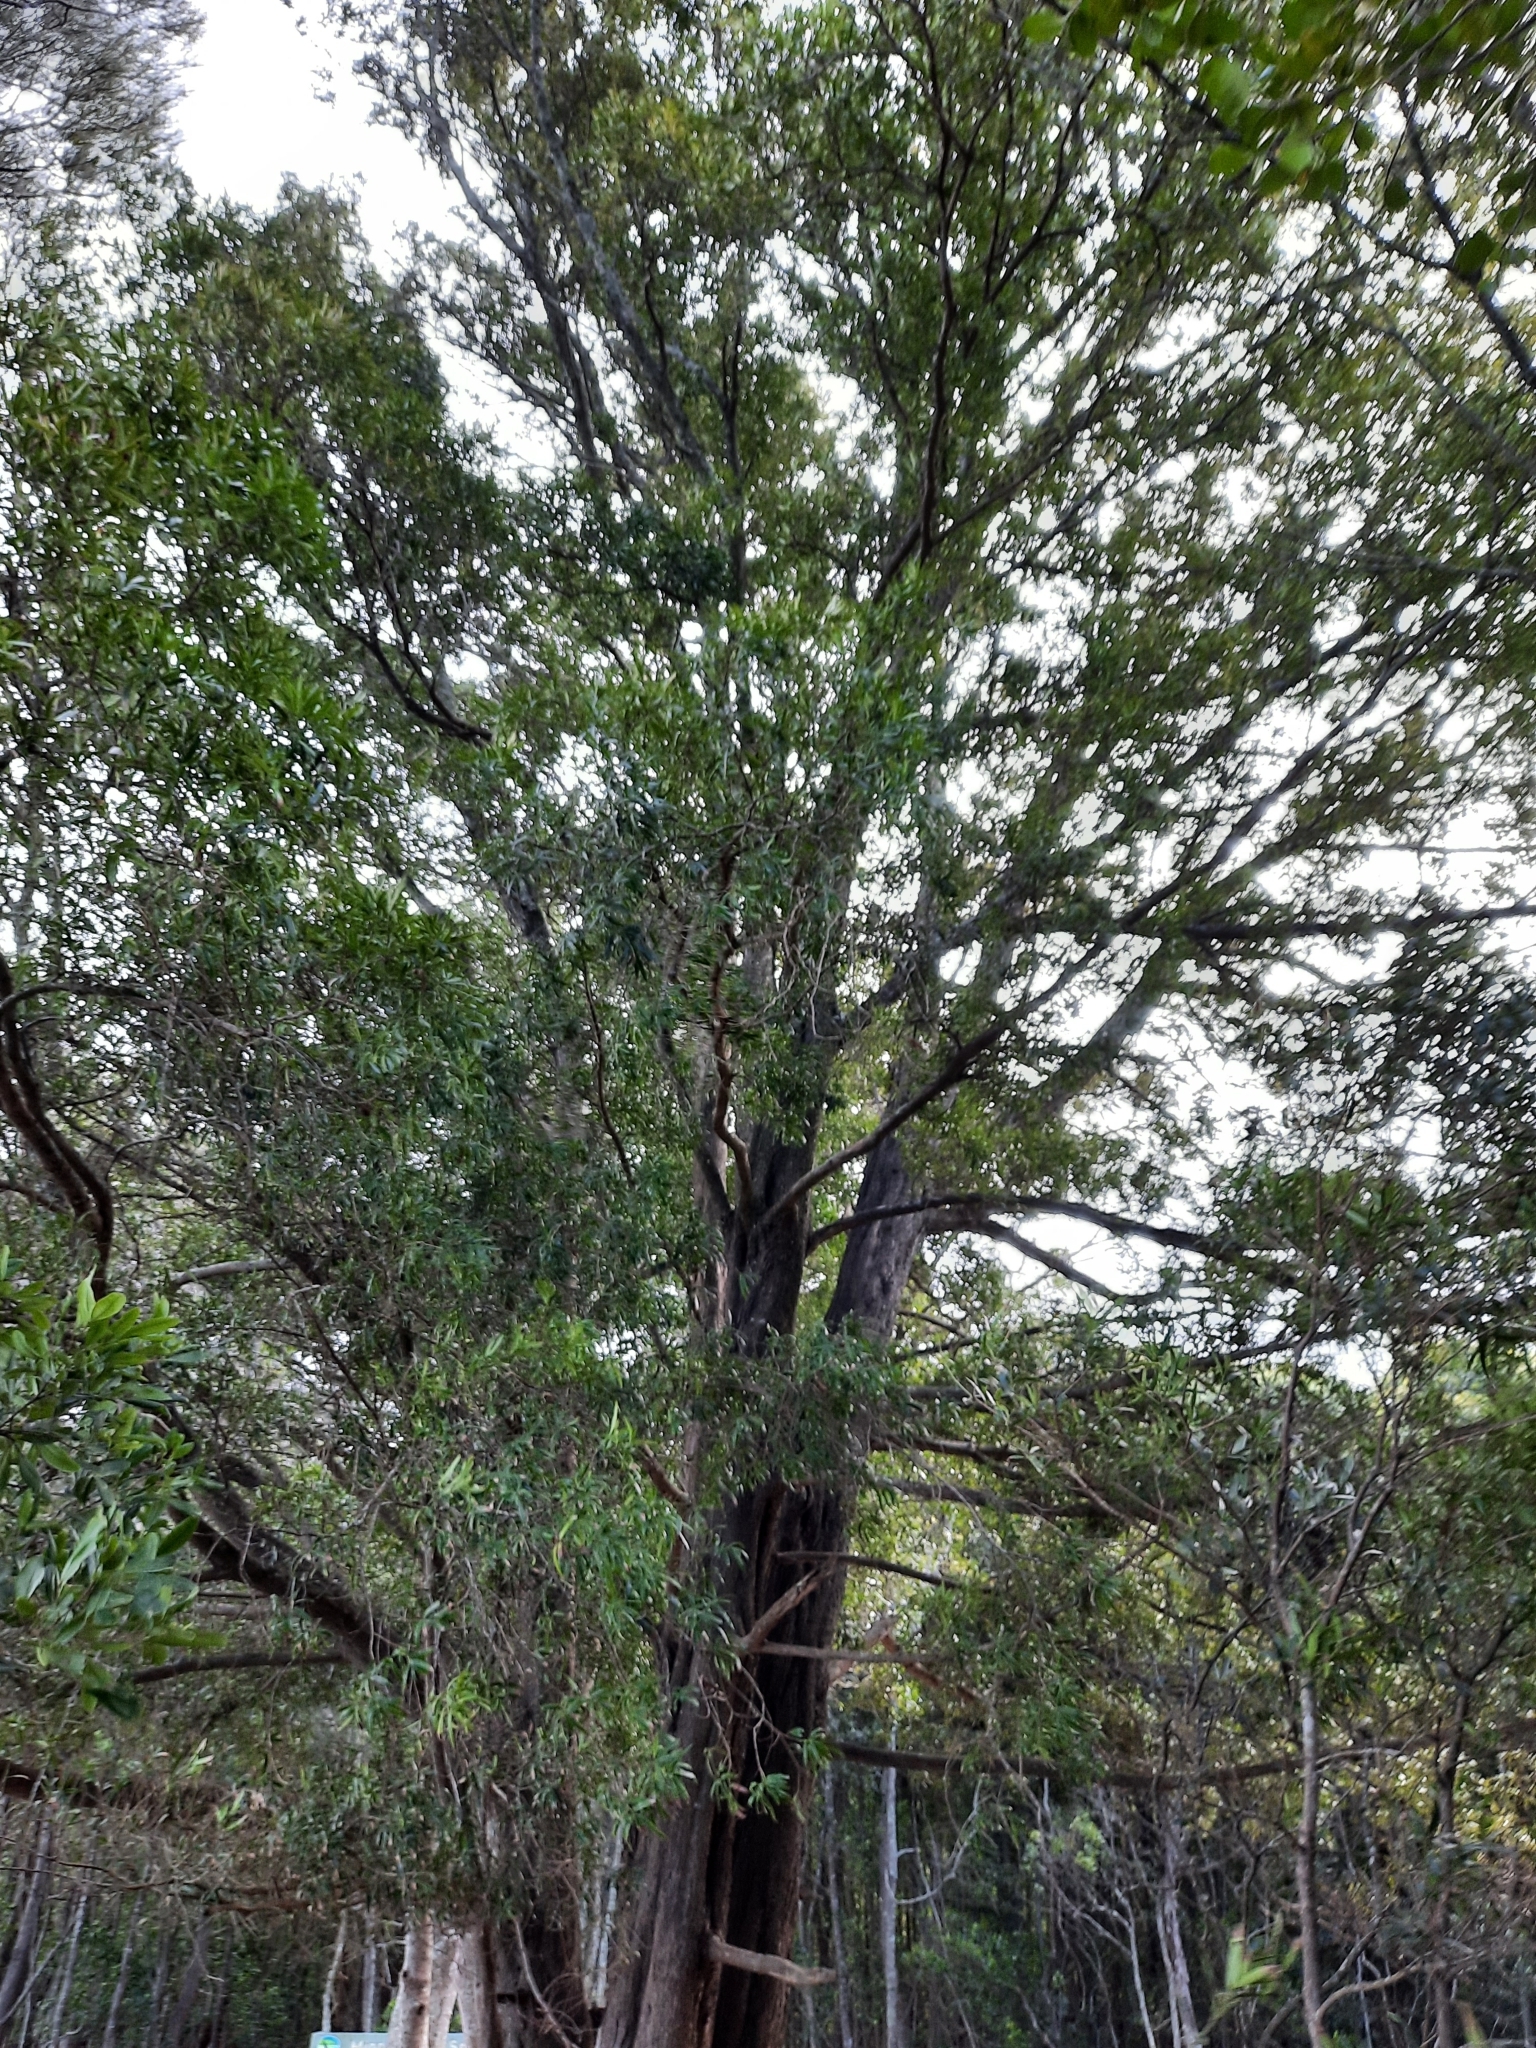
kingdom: Plantae
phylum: Tracheophyta
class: Pinopsida
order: Pinales
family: Podocarpaceae
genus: Podocarpus
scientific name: Podocarpus elatus
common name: Plum pine
